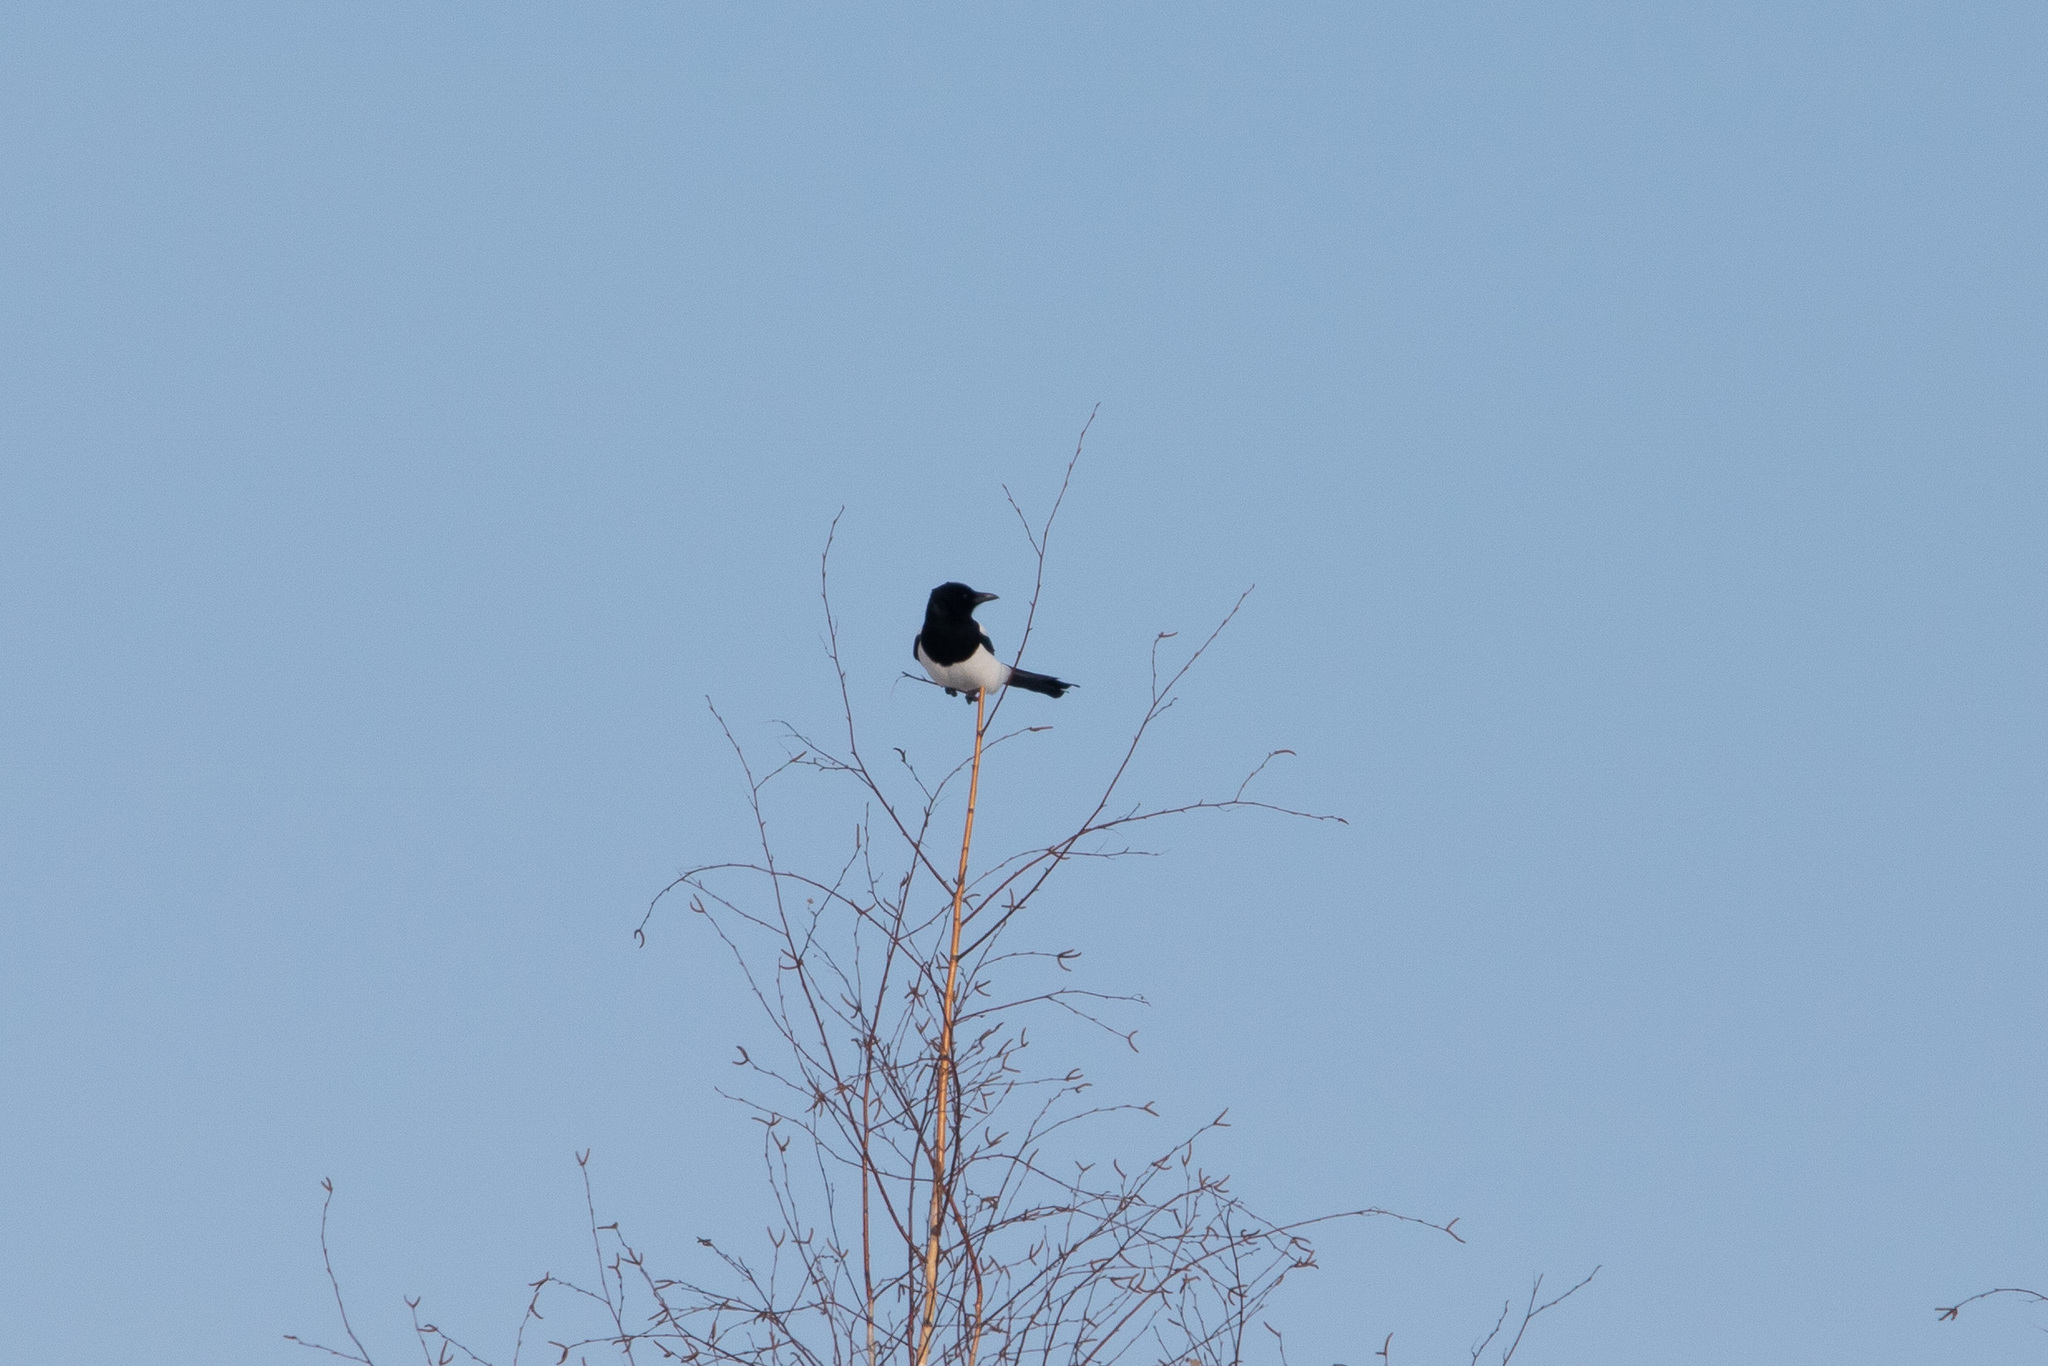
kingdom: Animalia
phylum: Chordata
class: Aves
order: Passeriformes
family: Corvidae
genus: Pica
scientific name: Pica pica
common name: Eurasian magpie
